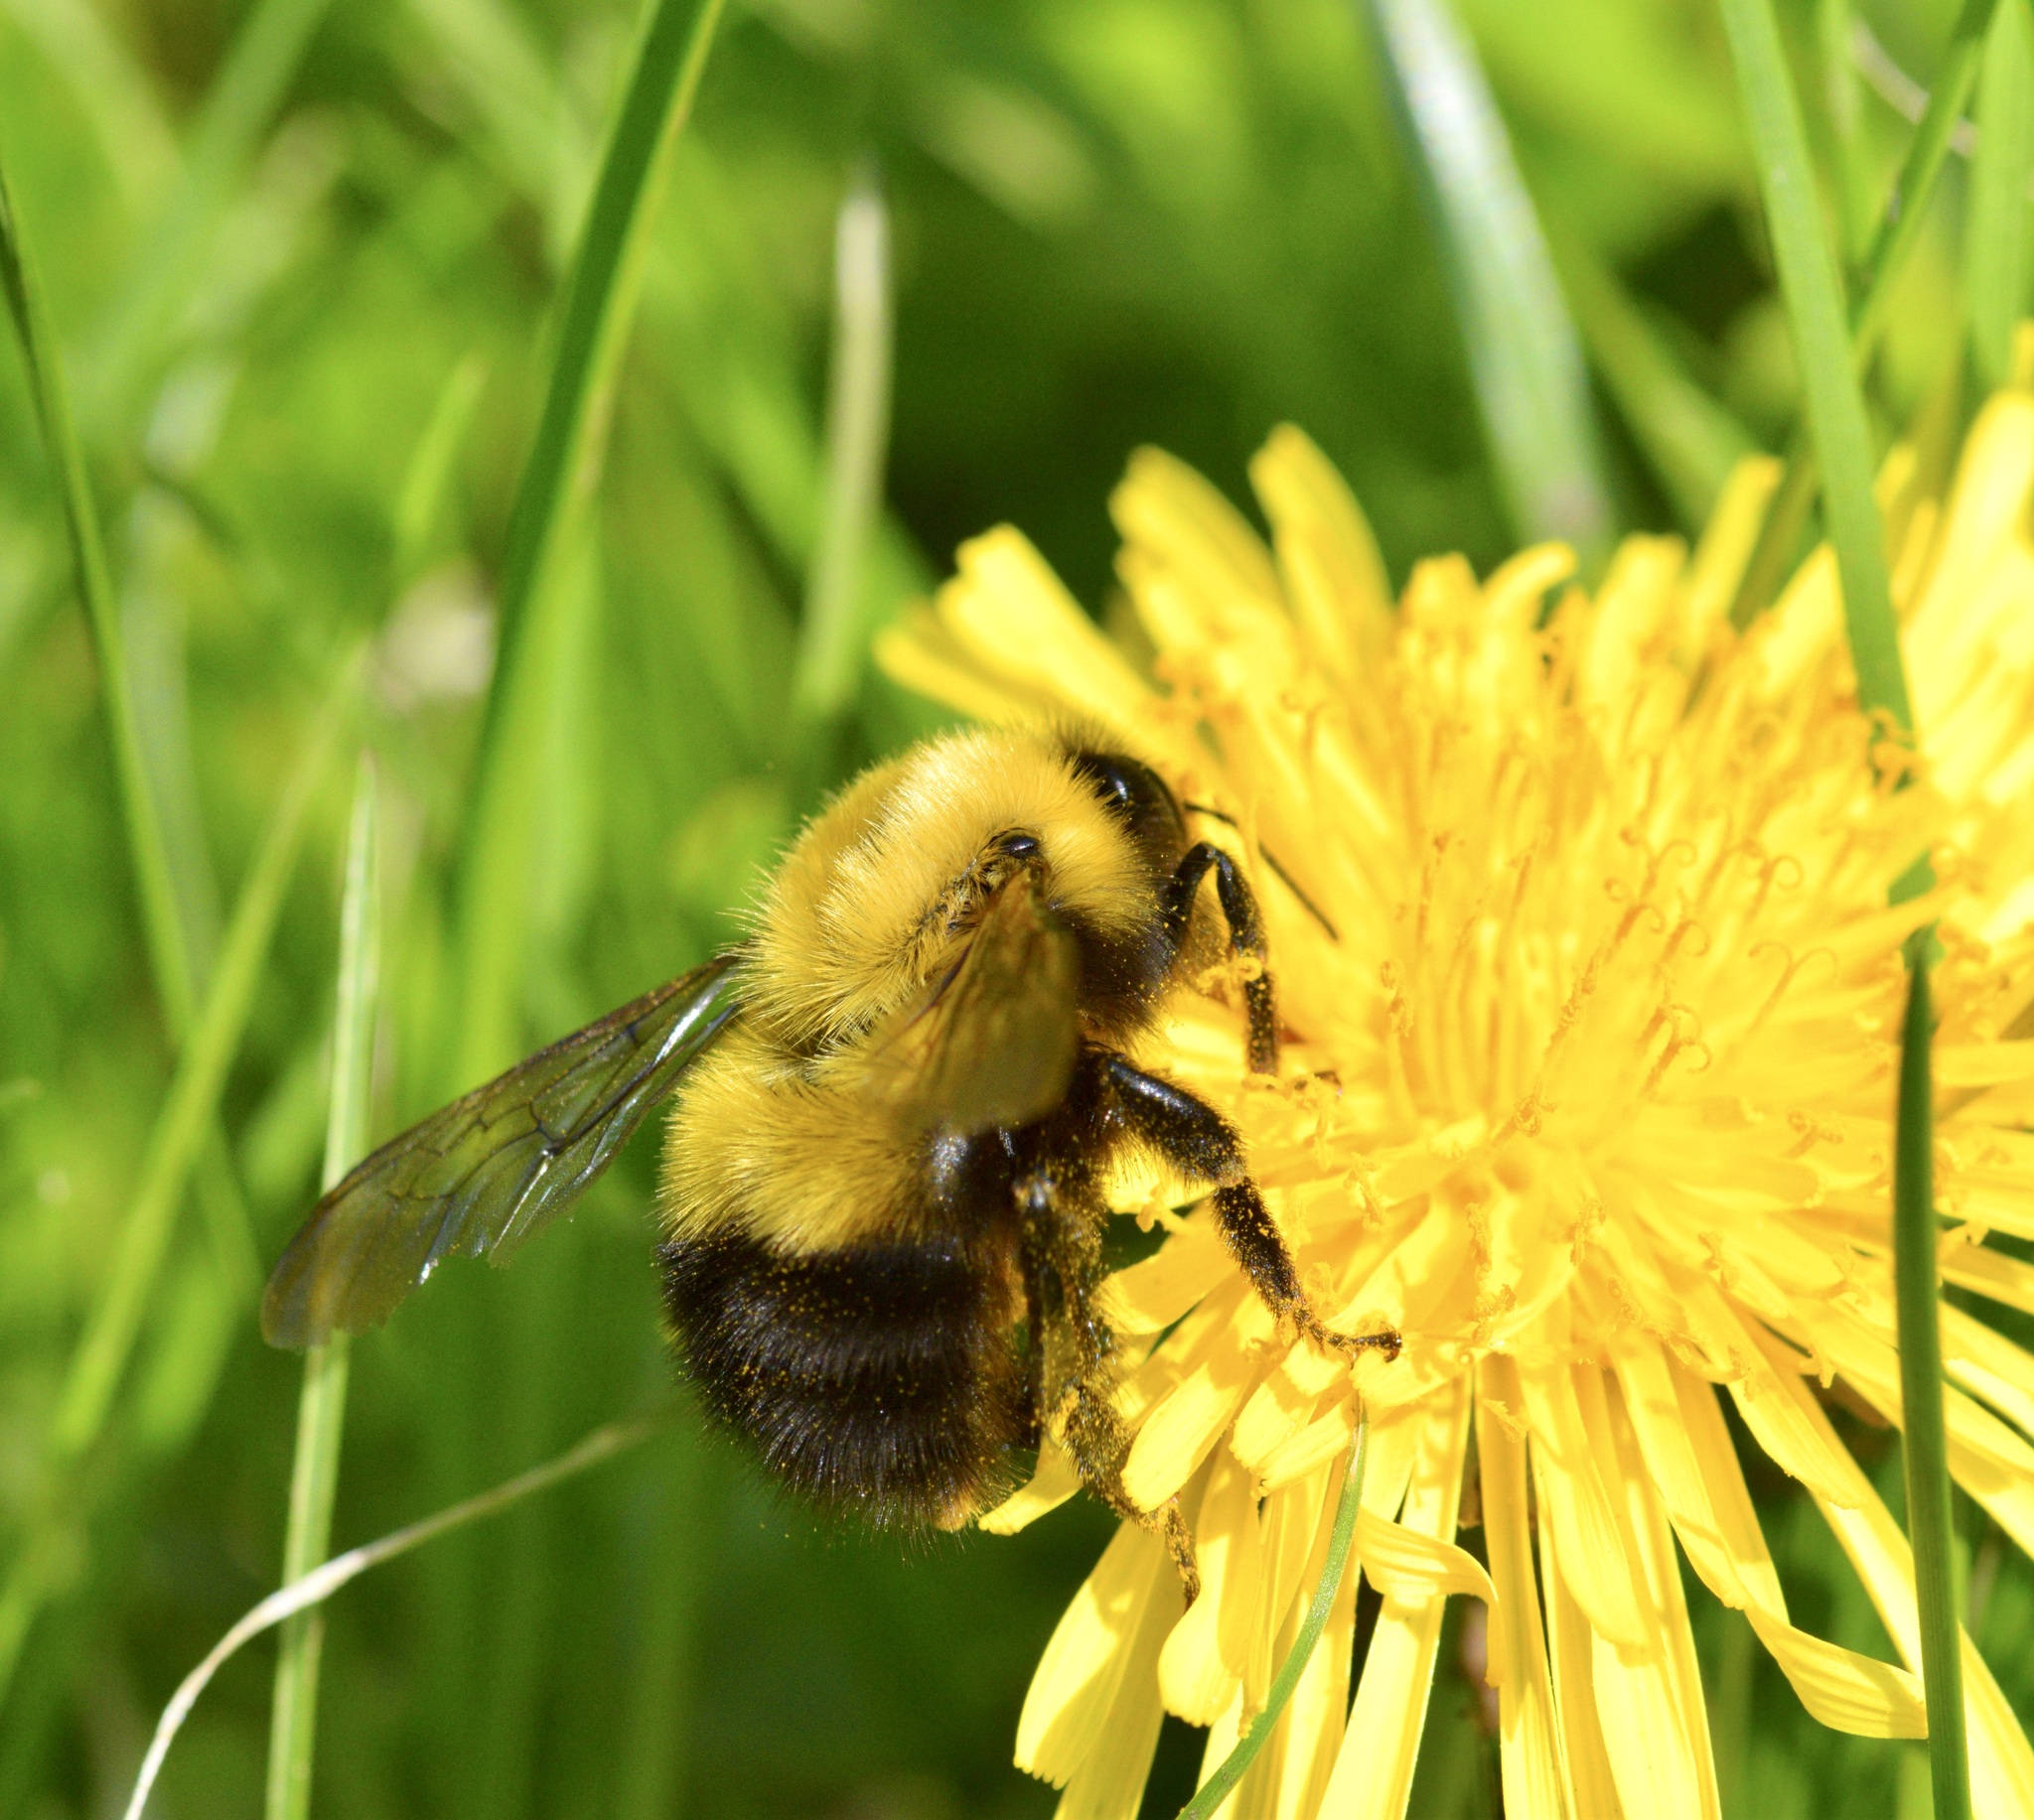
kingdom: Animalia
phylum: Arthropoda
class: Insecta
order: Hymenoptera
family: Apidae
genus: Bombus
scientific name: Bombus perplexus
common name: Confusing bumble bee
